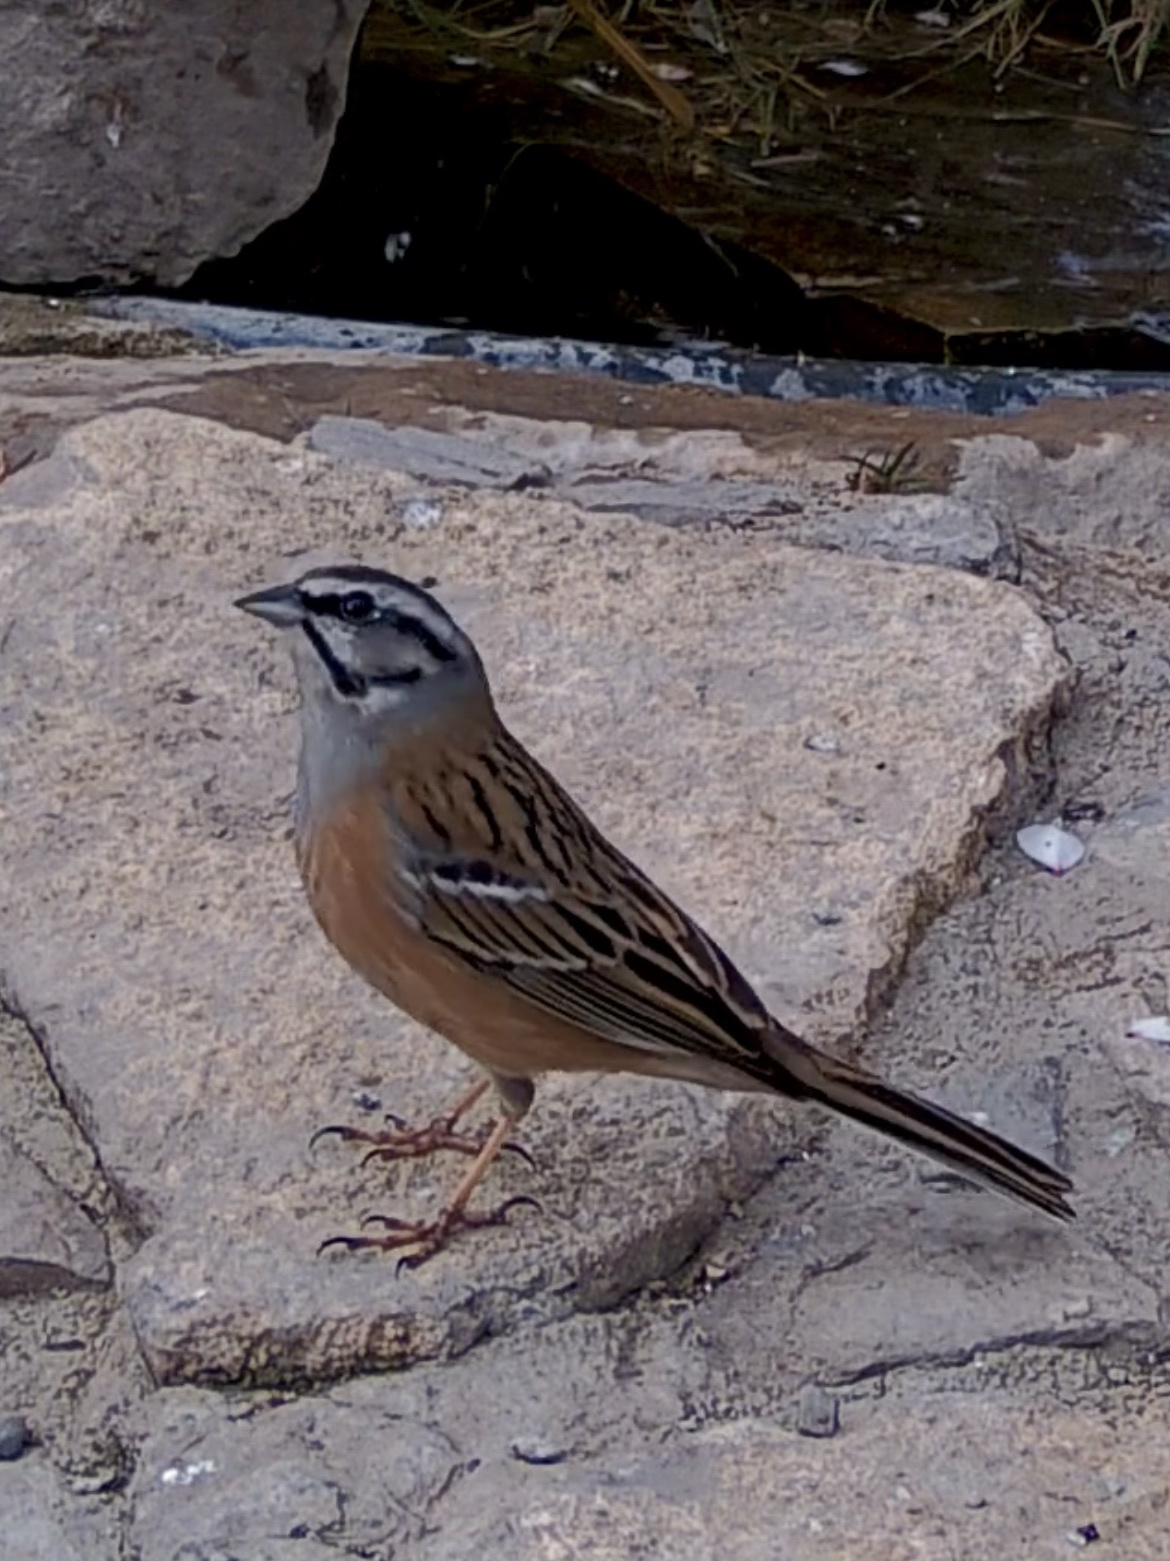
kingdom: Animalia
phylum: Chordata
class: Aves
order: Passeriformes
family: Emberizidae
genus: Emberiza
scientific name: Emberiza cia
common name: Rock bunting
